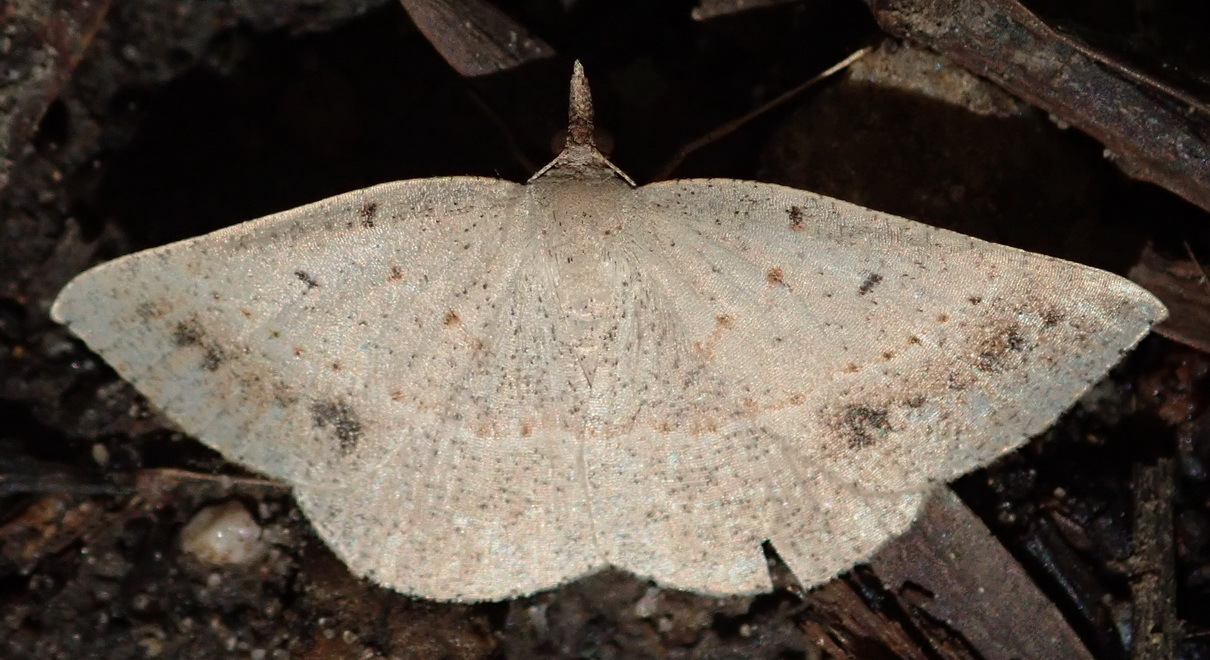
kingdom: Animalia
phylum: Arthropoda
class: Insecta
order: Lepidoptera
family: Geometridae
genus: Conolophia
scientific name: Conolophia aemula
